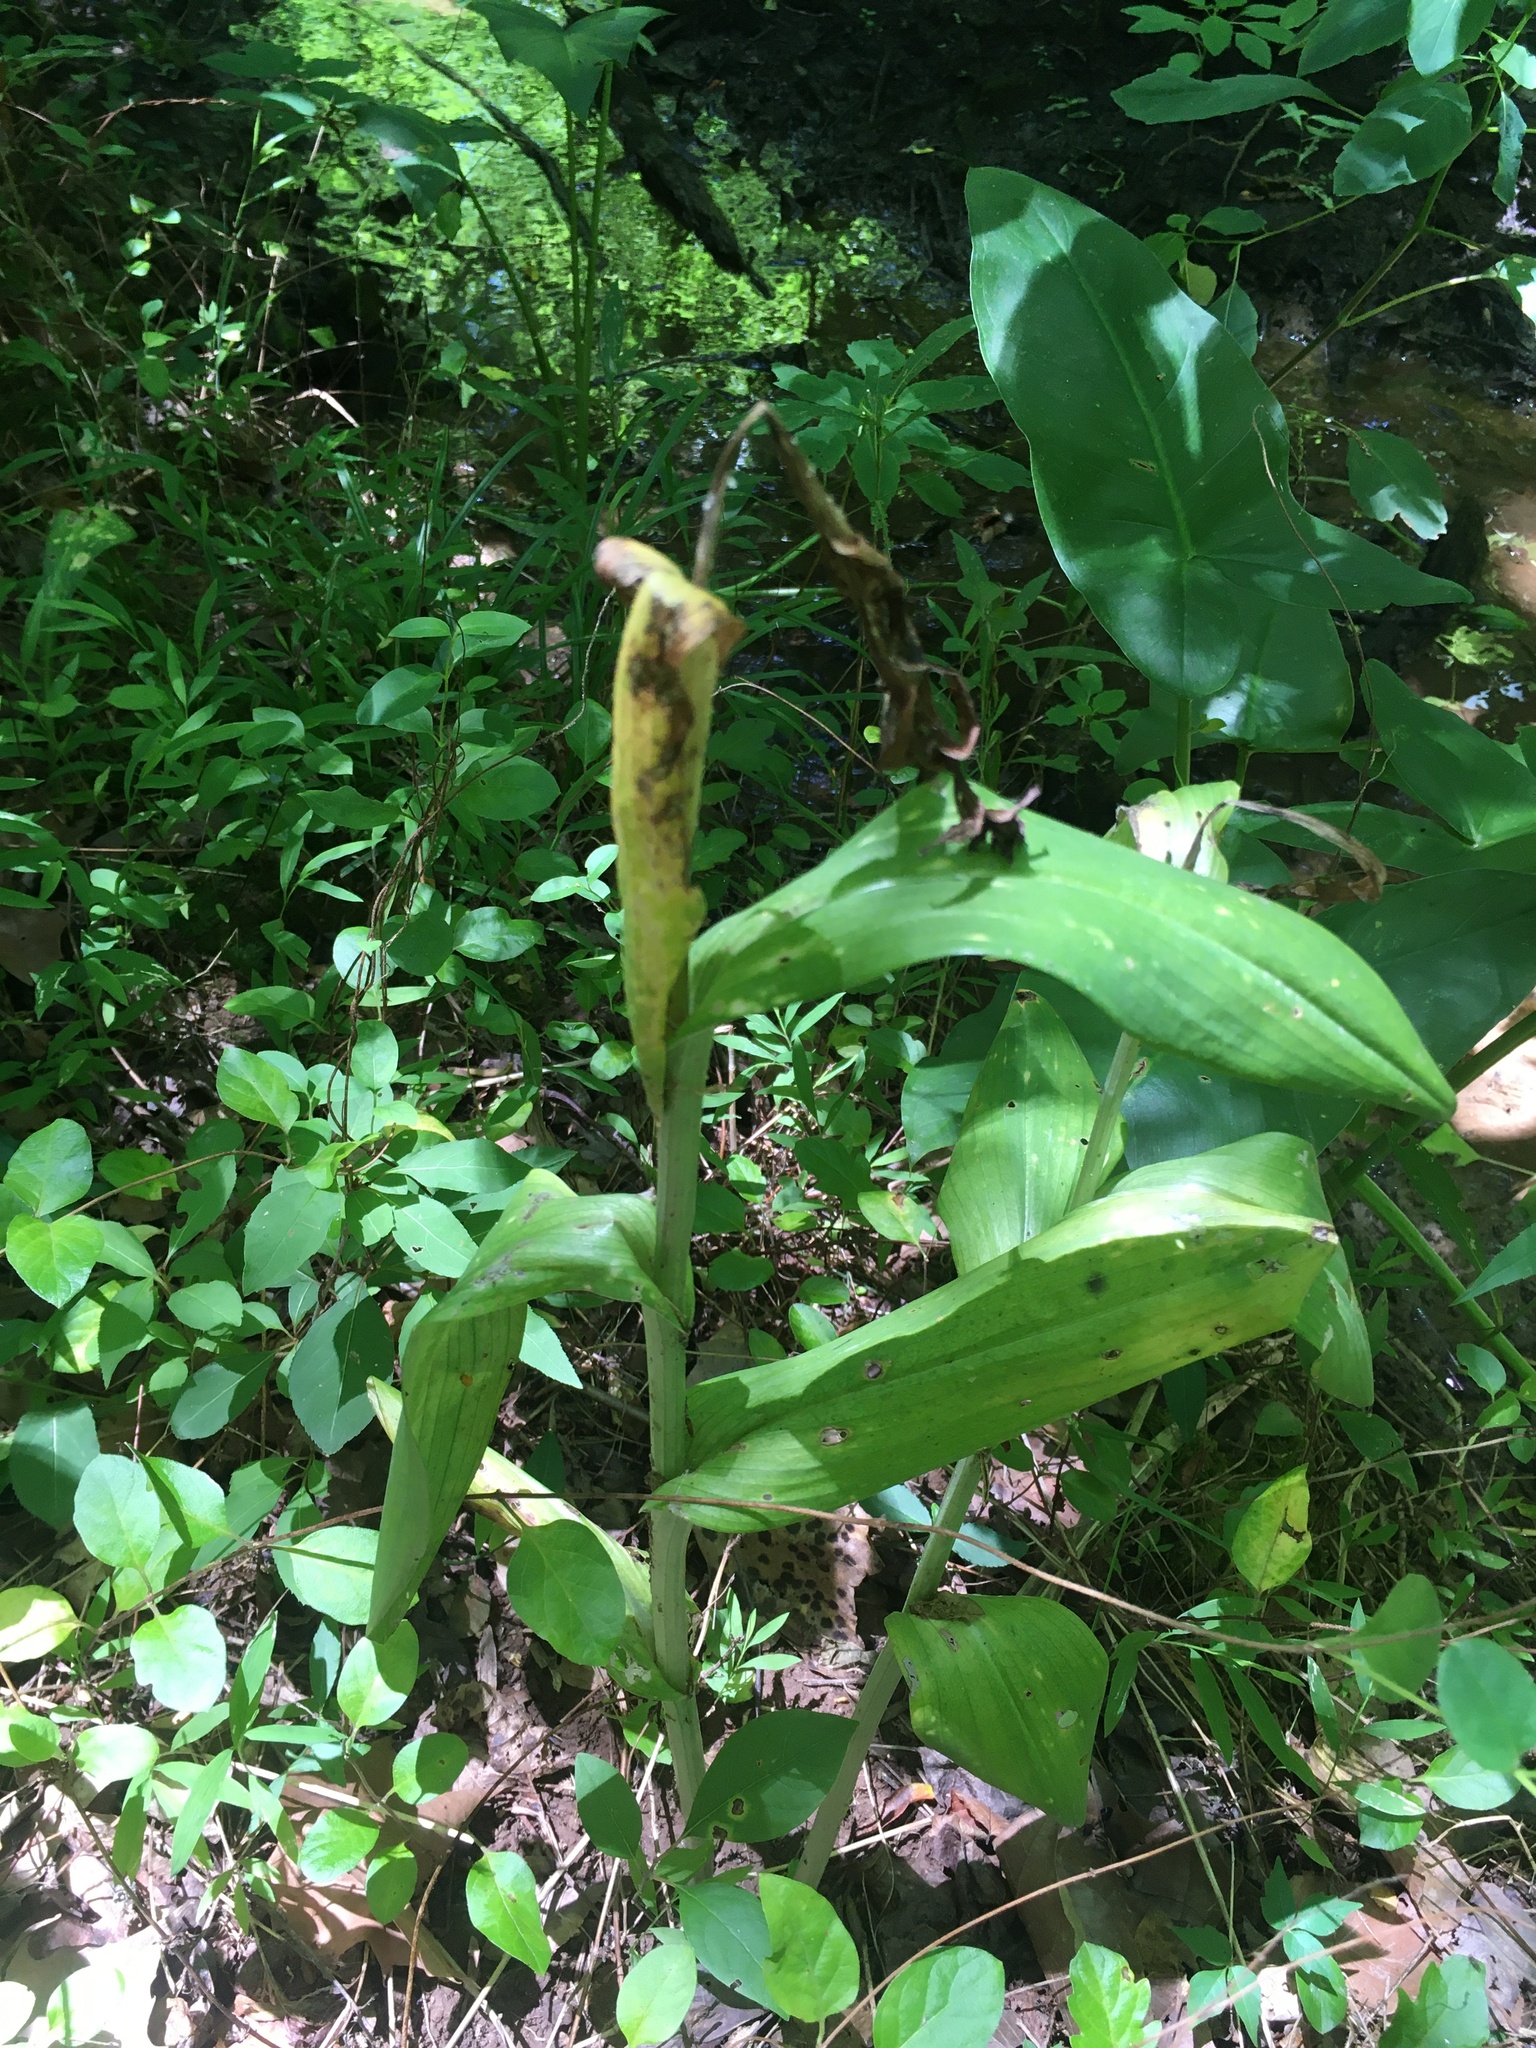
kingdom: Plantae
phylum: Tracheophyta
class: Liliopsida
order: Asparagales
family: Orchidaceae
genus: Platanthera
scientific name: Platanthera peramoena
